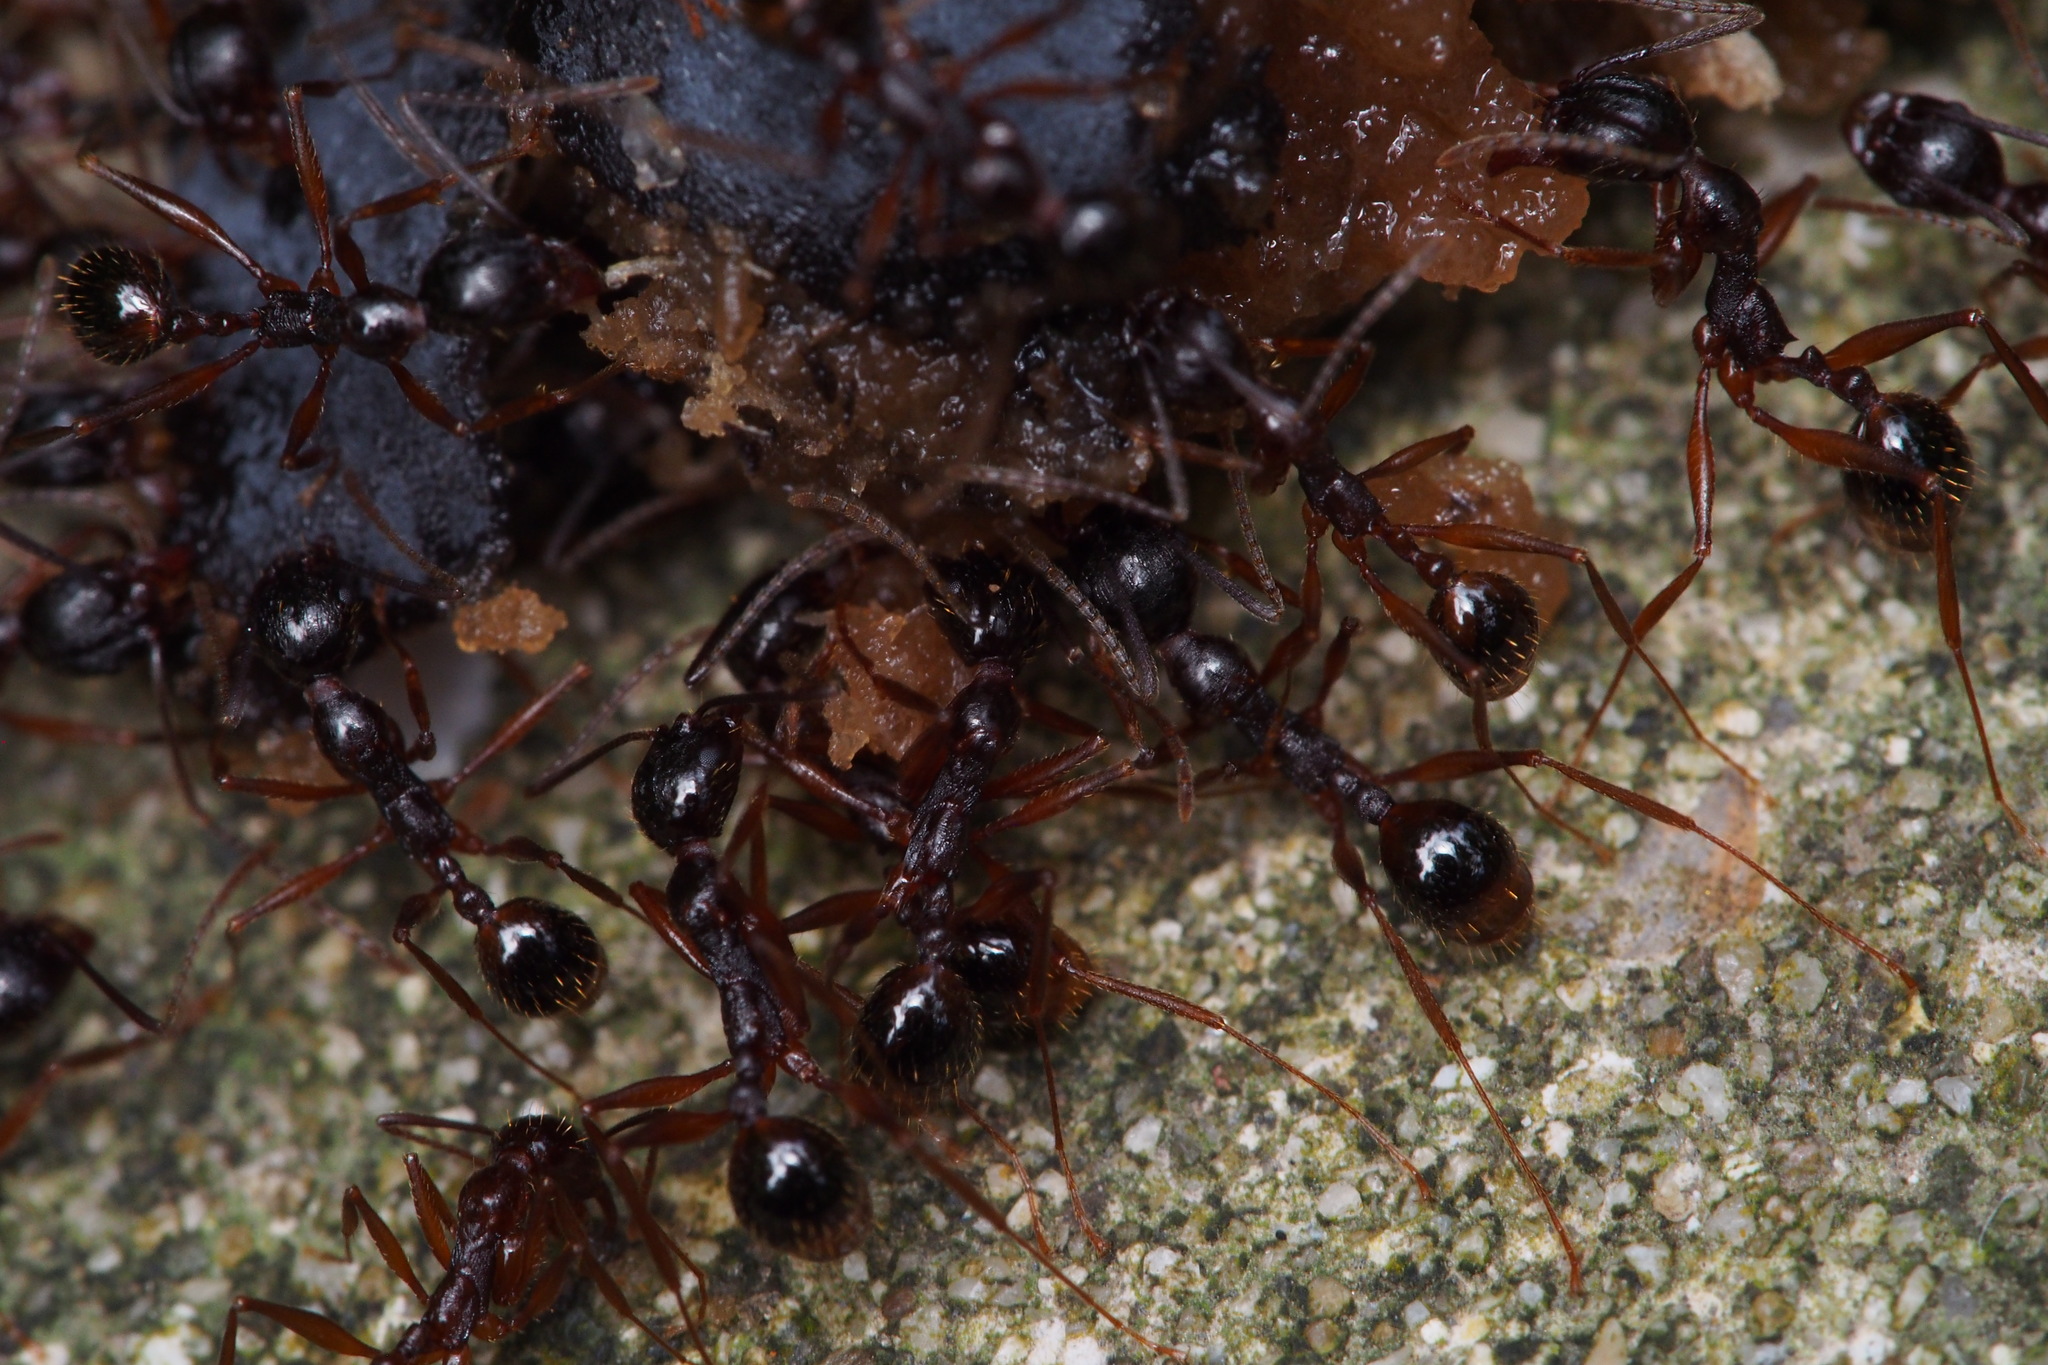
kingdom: Animalia
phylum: Arthropoda
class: Insecta
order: Hymenoptera
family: Formicidae
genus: Aphaenogaster
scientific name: Aphaenogaster famelica
